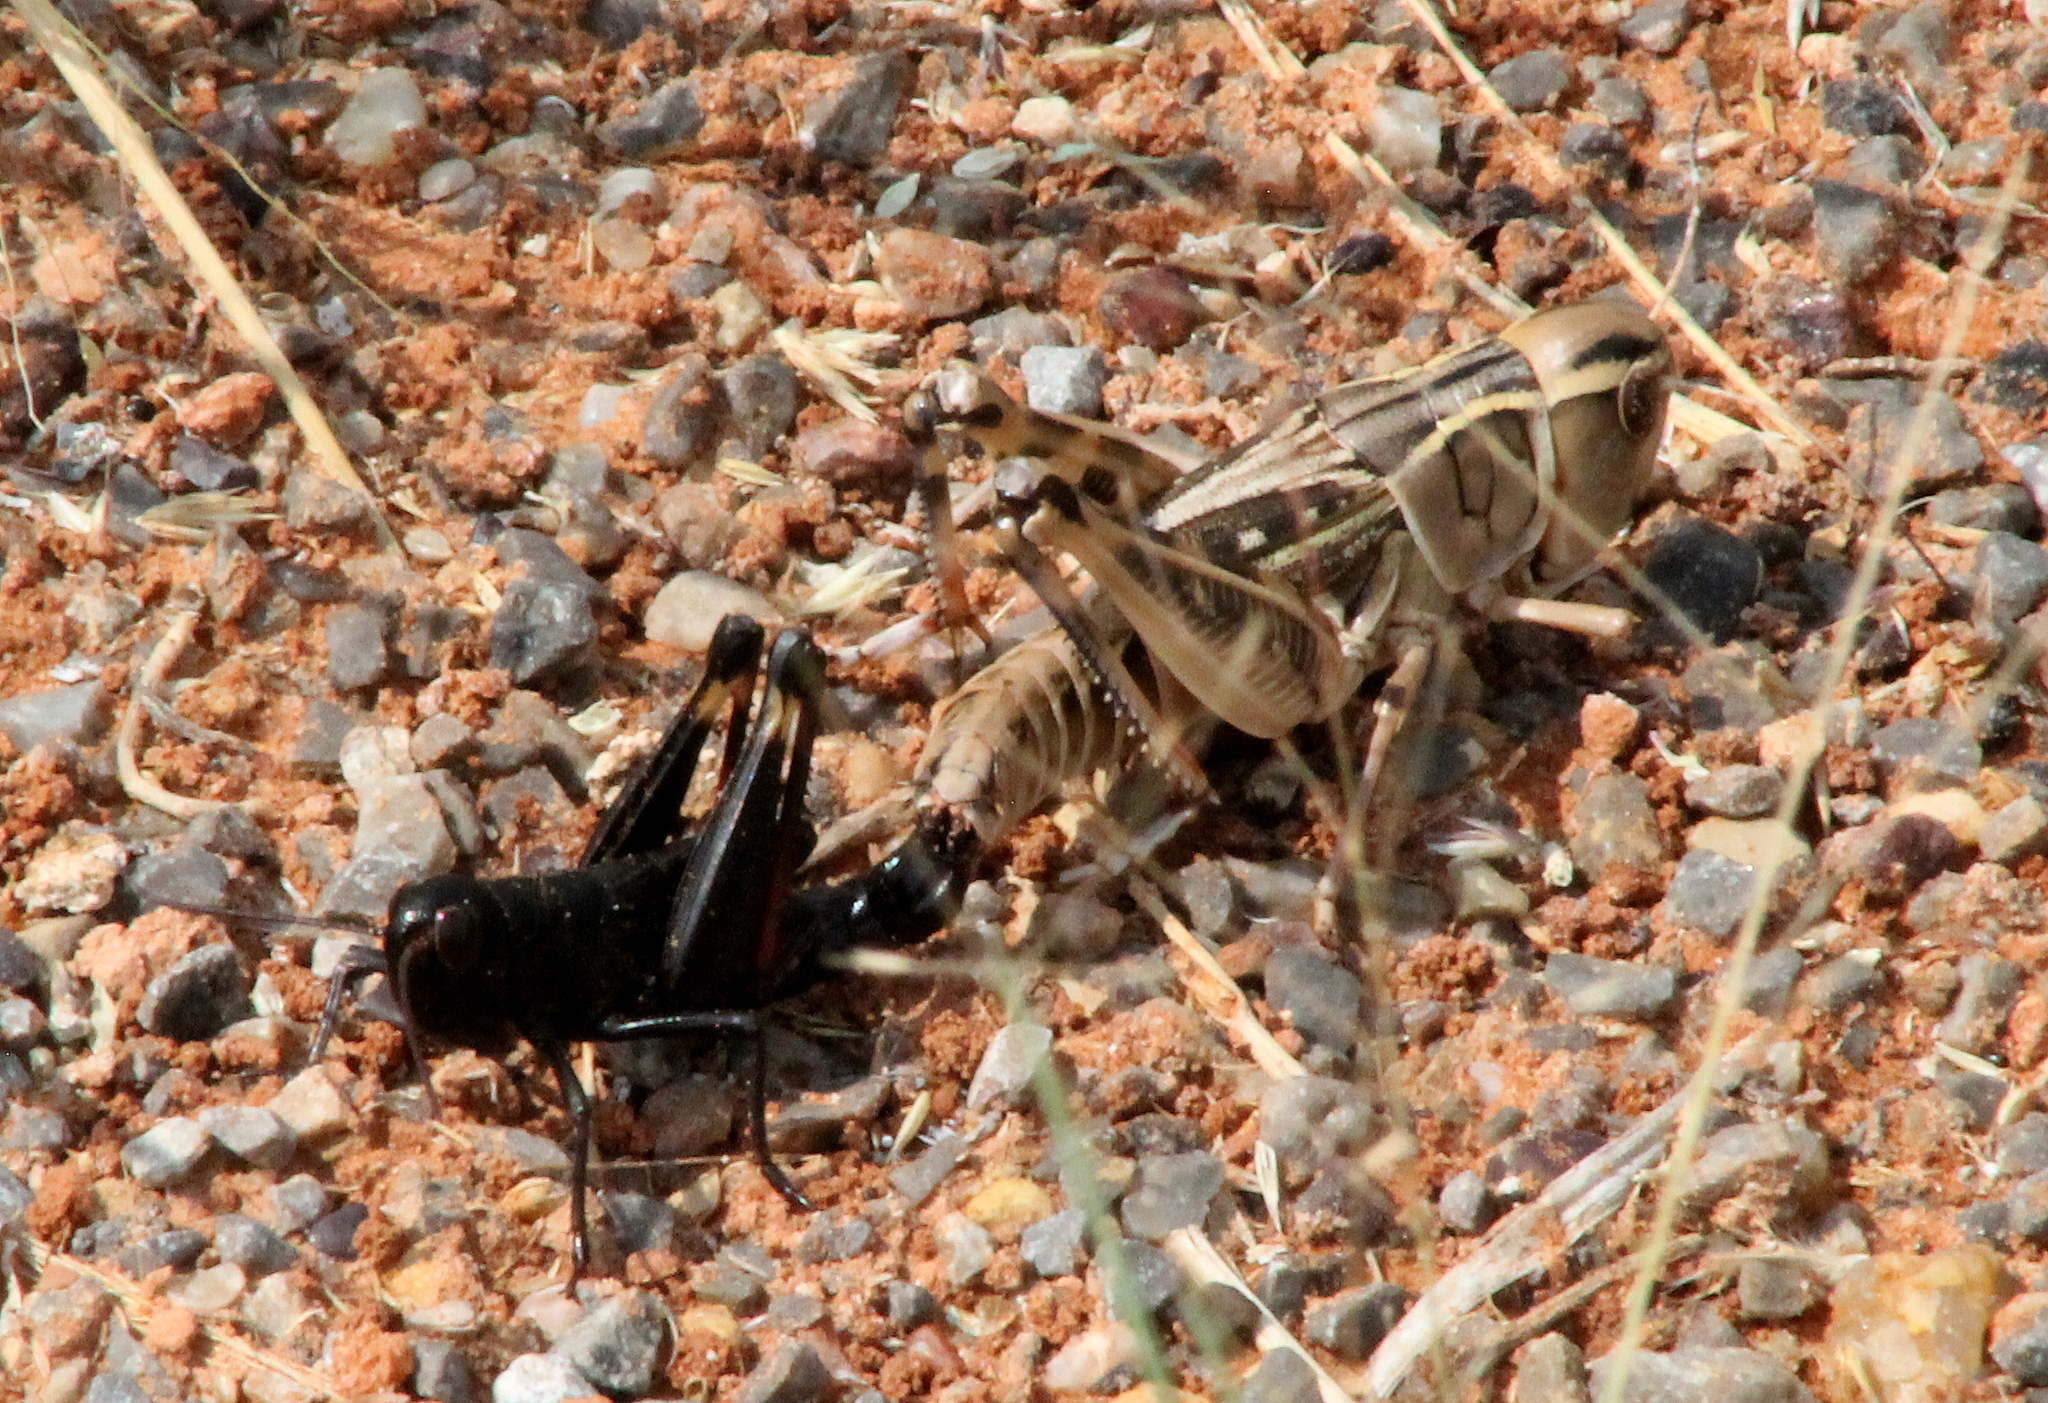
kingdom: Animalia
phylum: Arthropoda
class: Insecta
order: Orthoptera
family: Acrididae
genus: Boopedon
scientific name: Boopedon nubilum
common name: Ebony grasshopper
